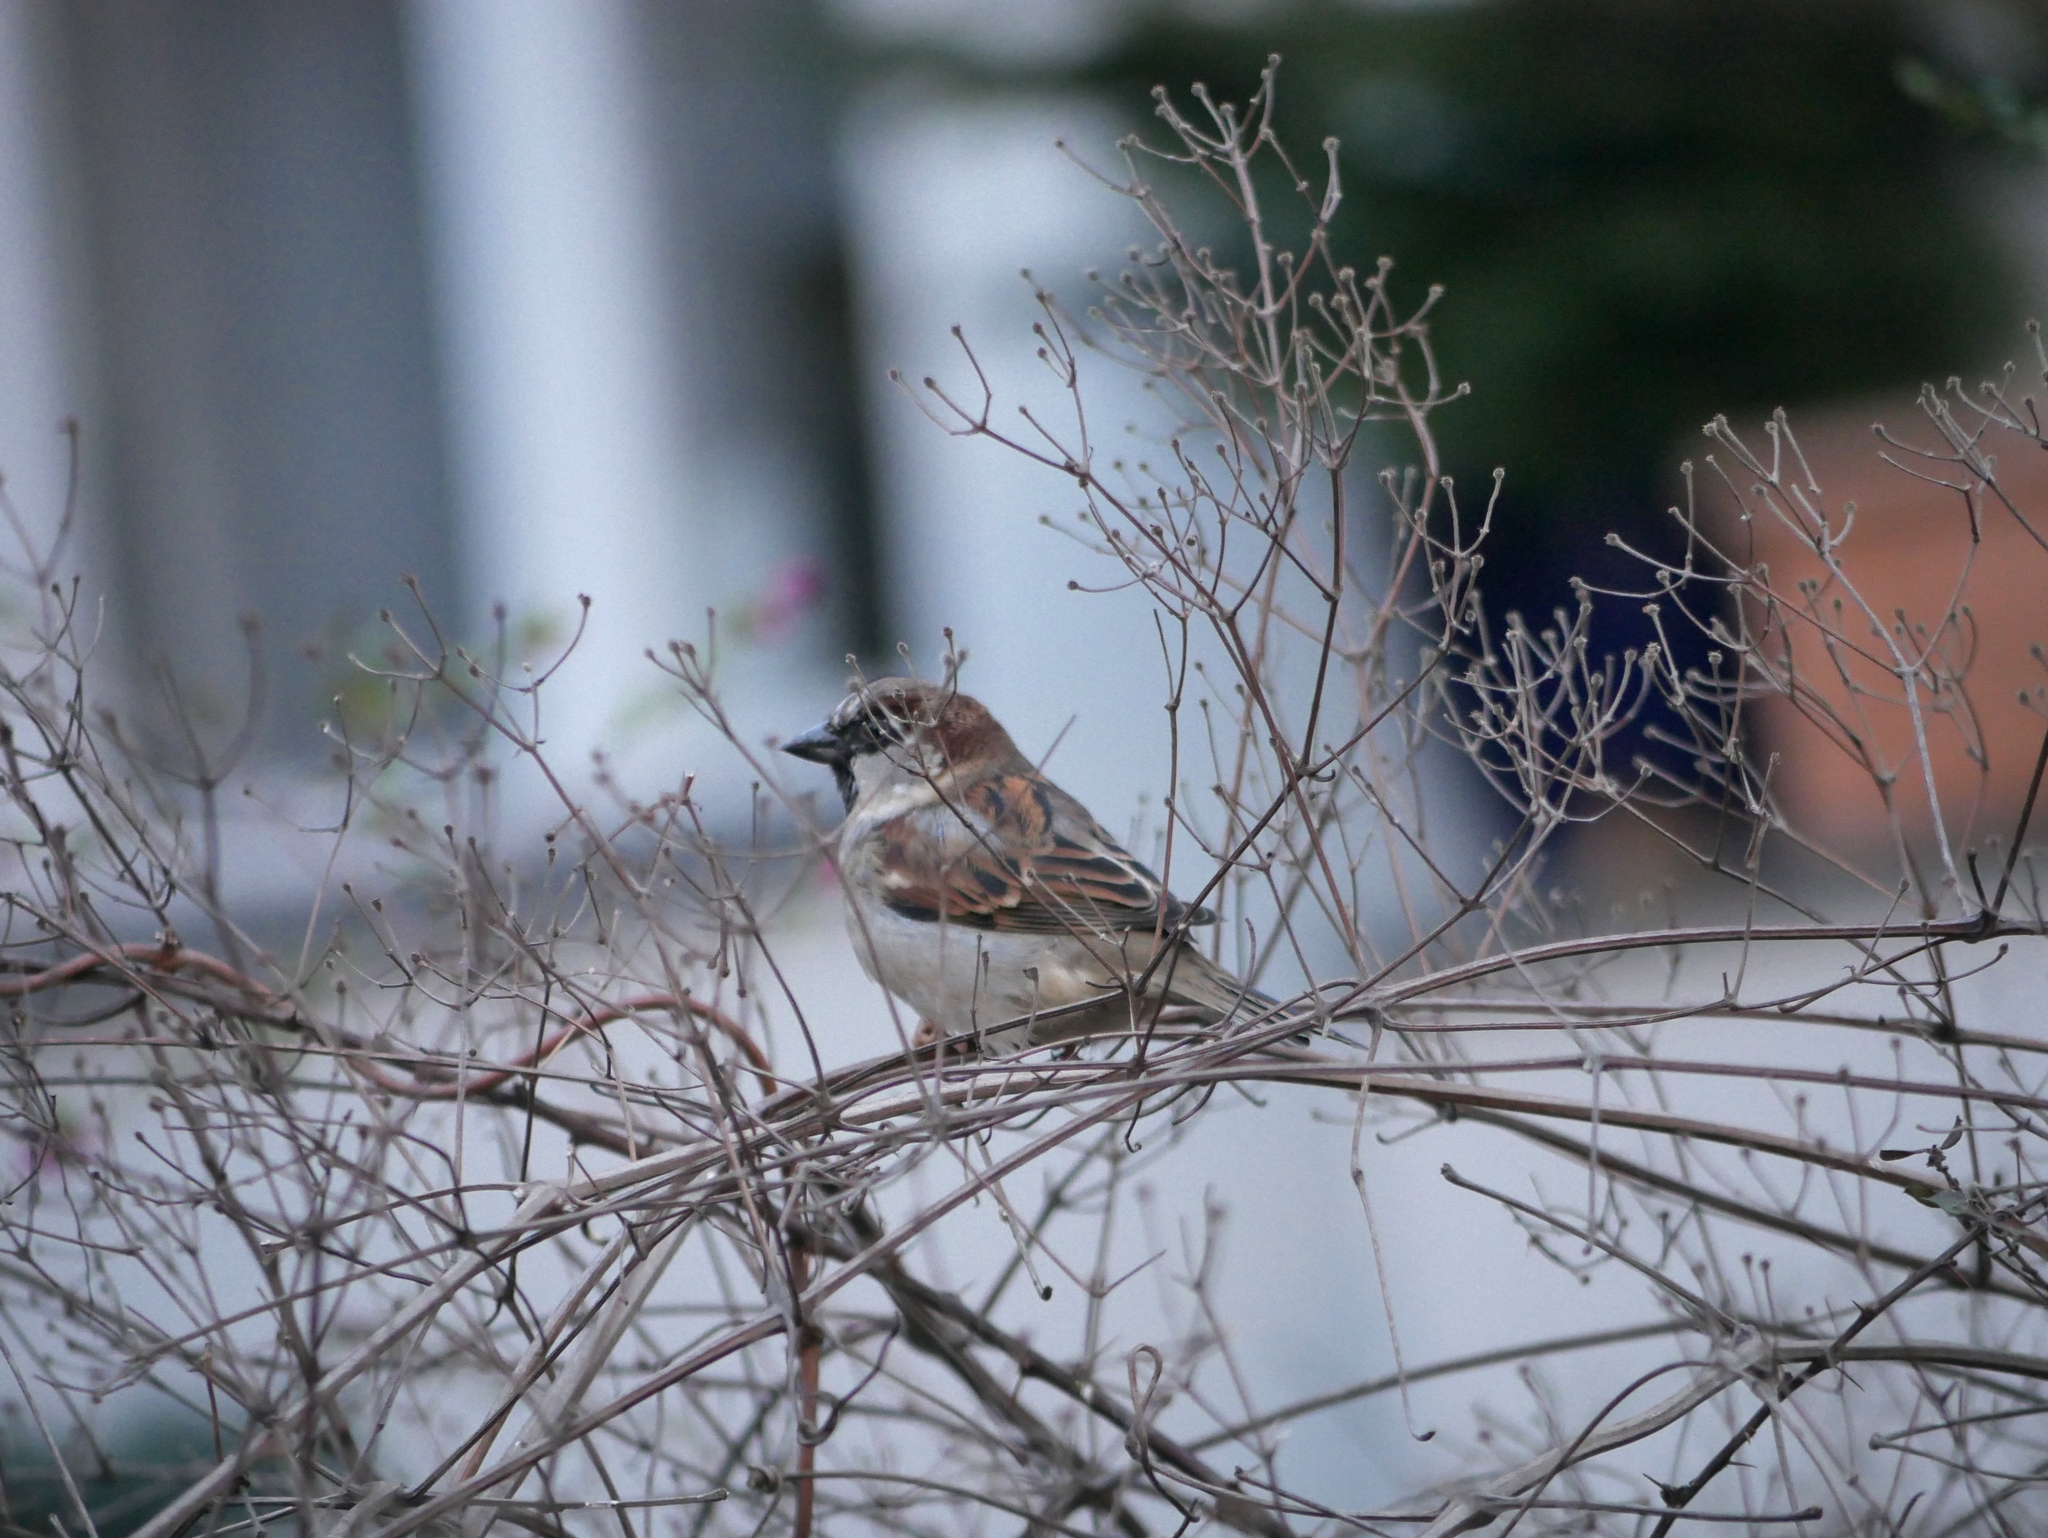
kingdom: Animalia
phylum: Chordata
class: Aves
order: Passeriformes
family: Passeridae
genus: Passer
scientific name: Passer domesticus
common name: House sparrow
